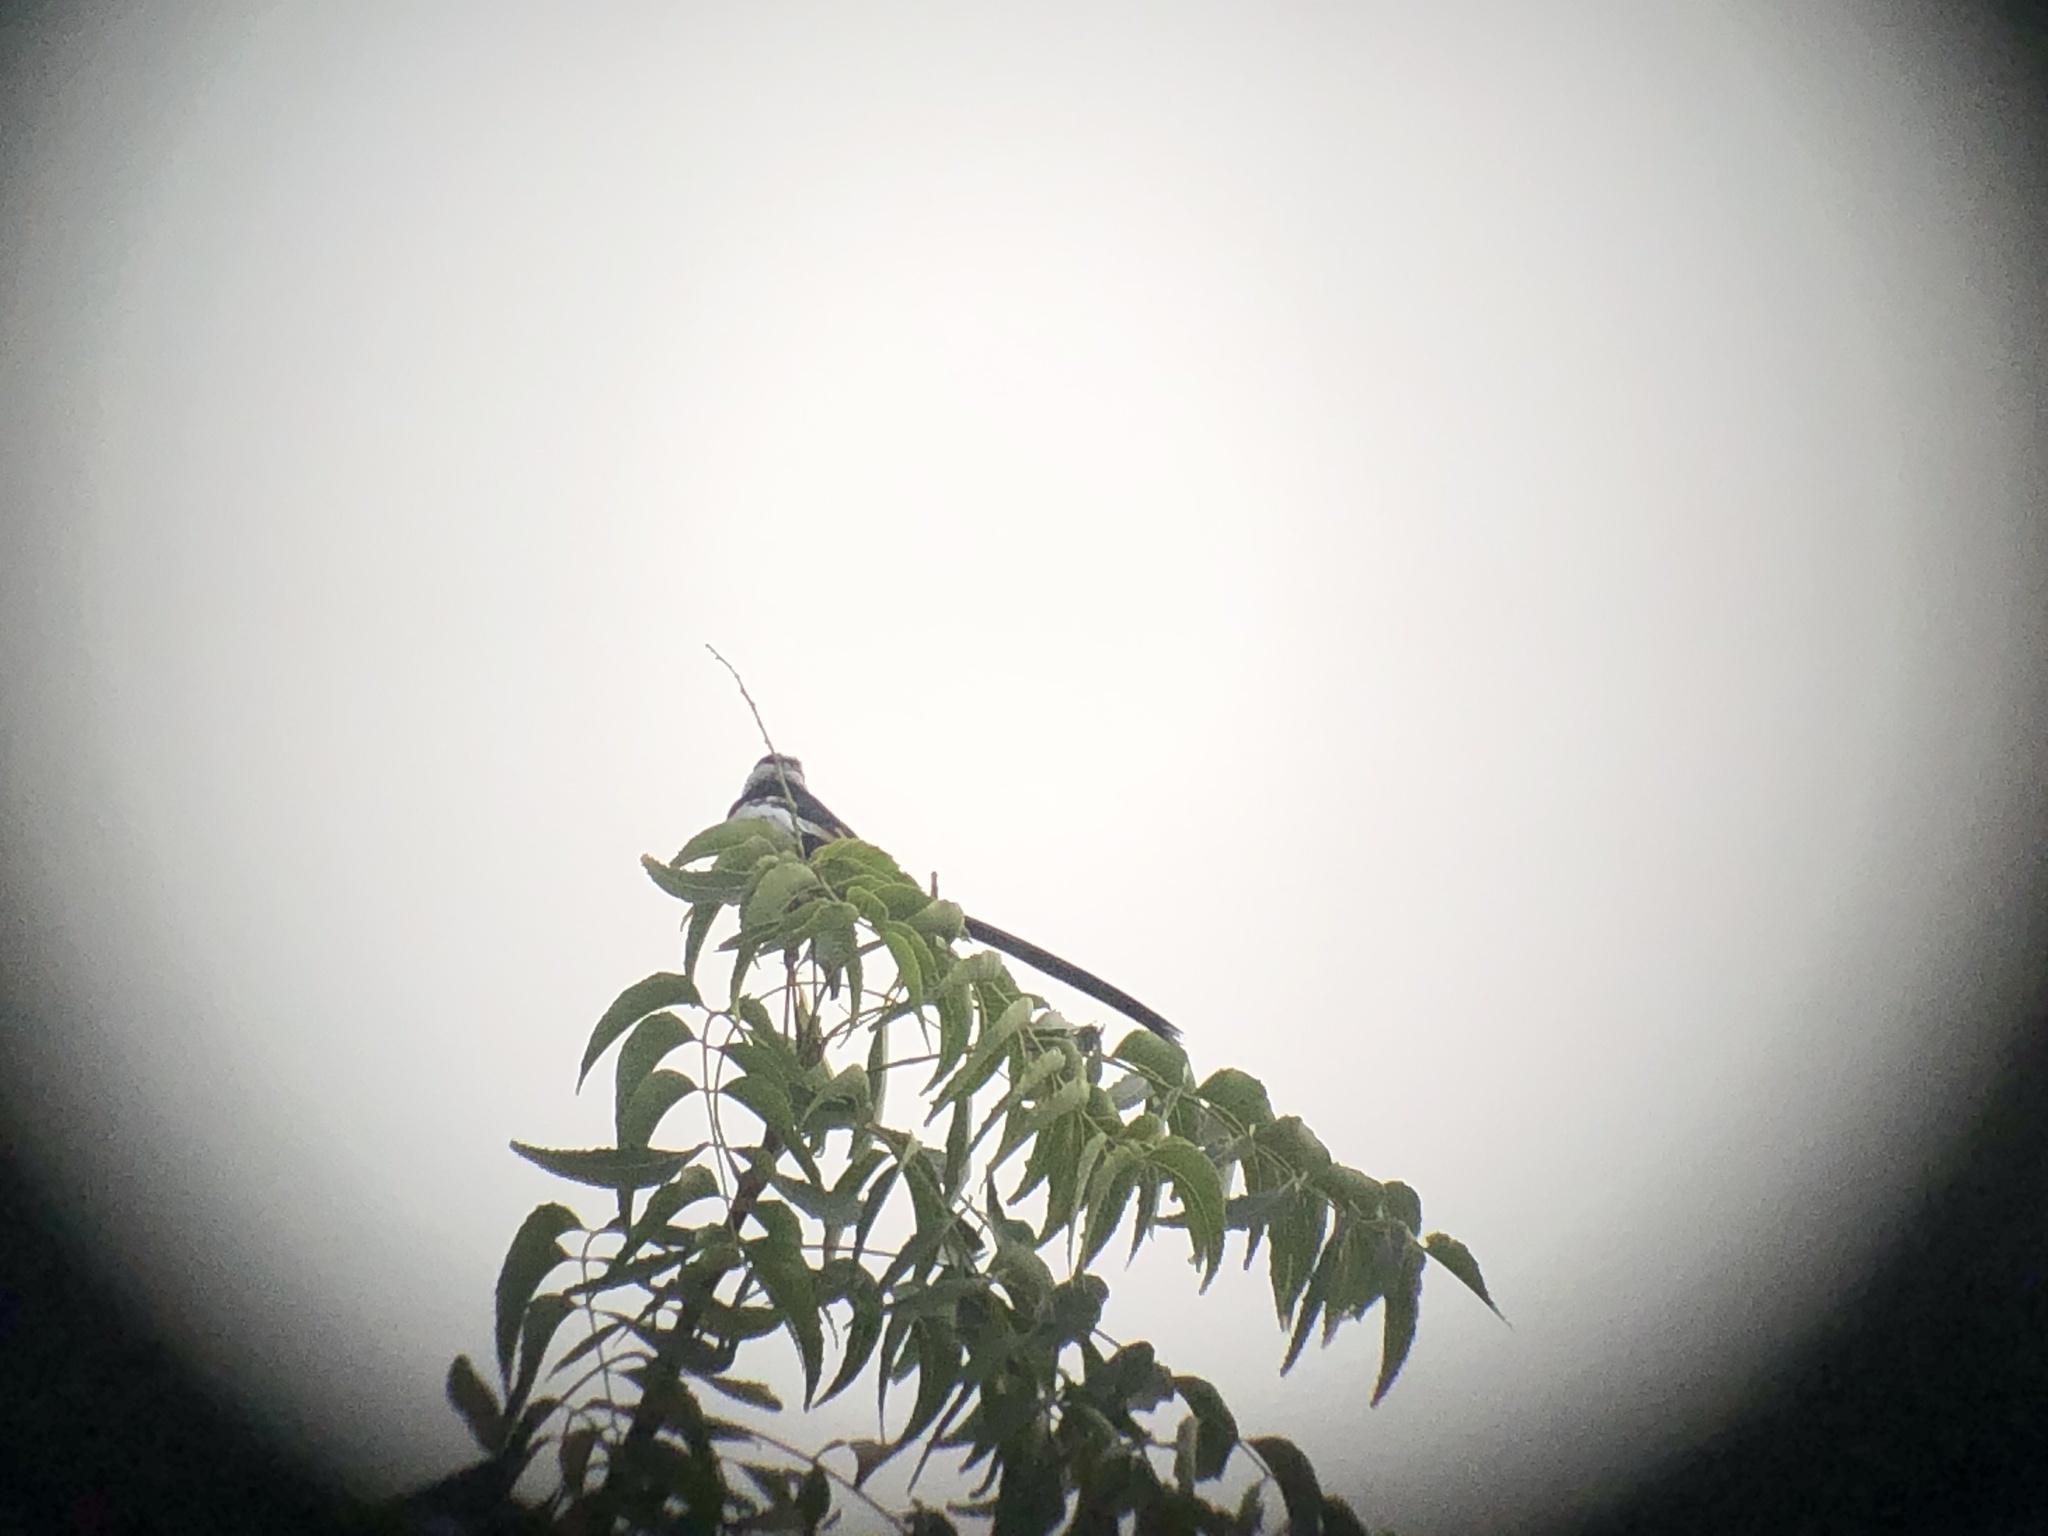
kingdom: Animalia
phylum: Chordata
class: Aves
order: Passeriformes
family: Viduidae
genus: Vidua
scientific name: Vidua macroura
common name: Pin-tailed whydah
